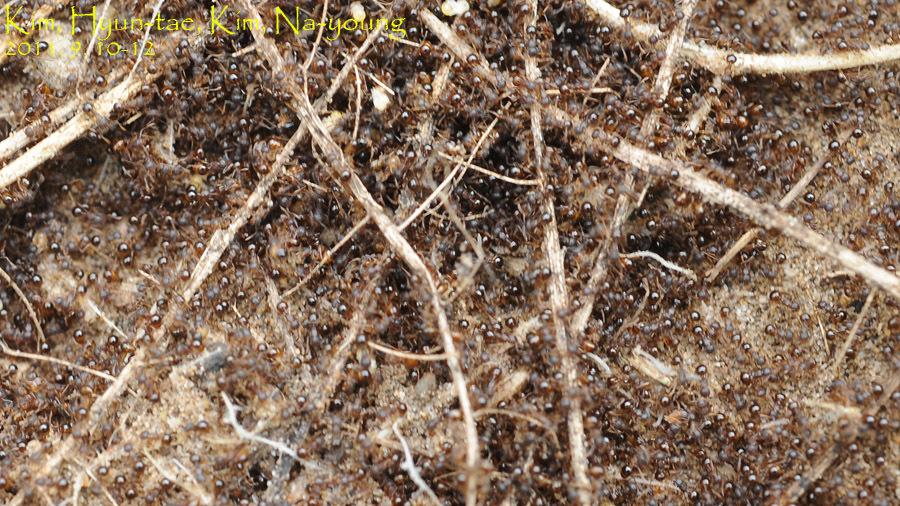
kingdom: Animalia
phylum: Arthropoda
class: Insecta
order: Hymenoptera
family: Formicidae
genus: Pristomyrmex
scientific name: Pristomyrmex punctatus
